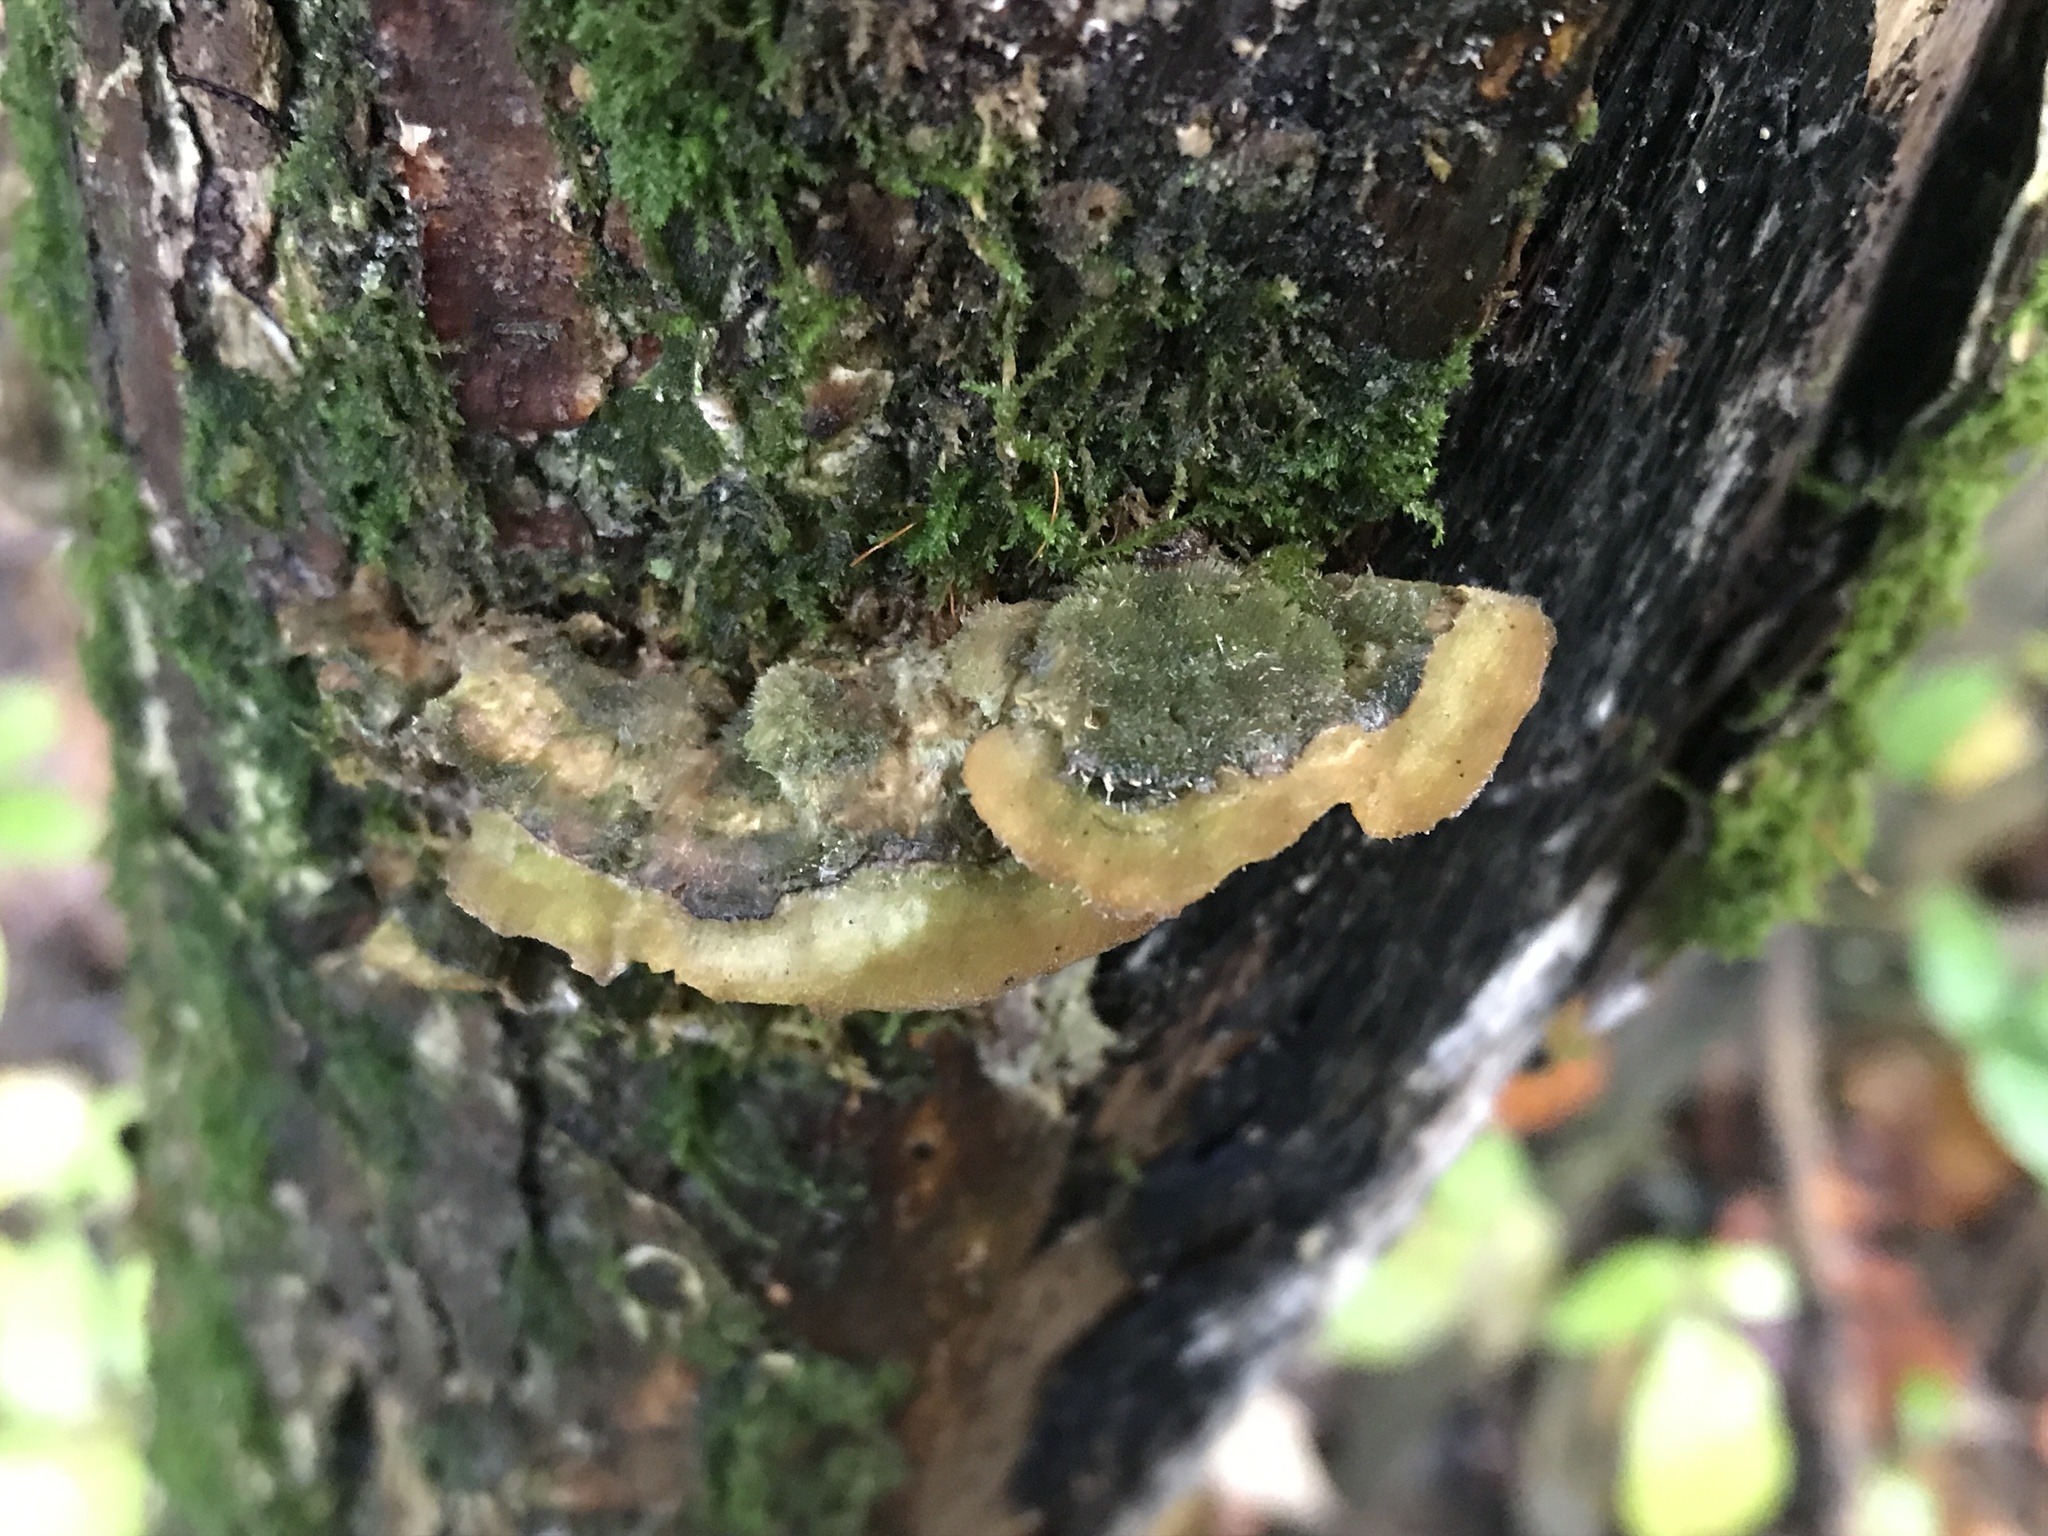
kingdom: Fungi
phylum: Basidiomycota
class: Agaricomycetes
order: Polyporales
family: Cerrenaceae
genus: Cerrena
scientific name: Cerrena unicolor
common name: Mossy maze polypore
